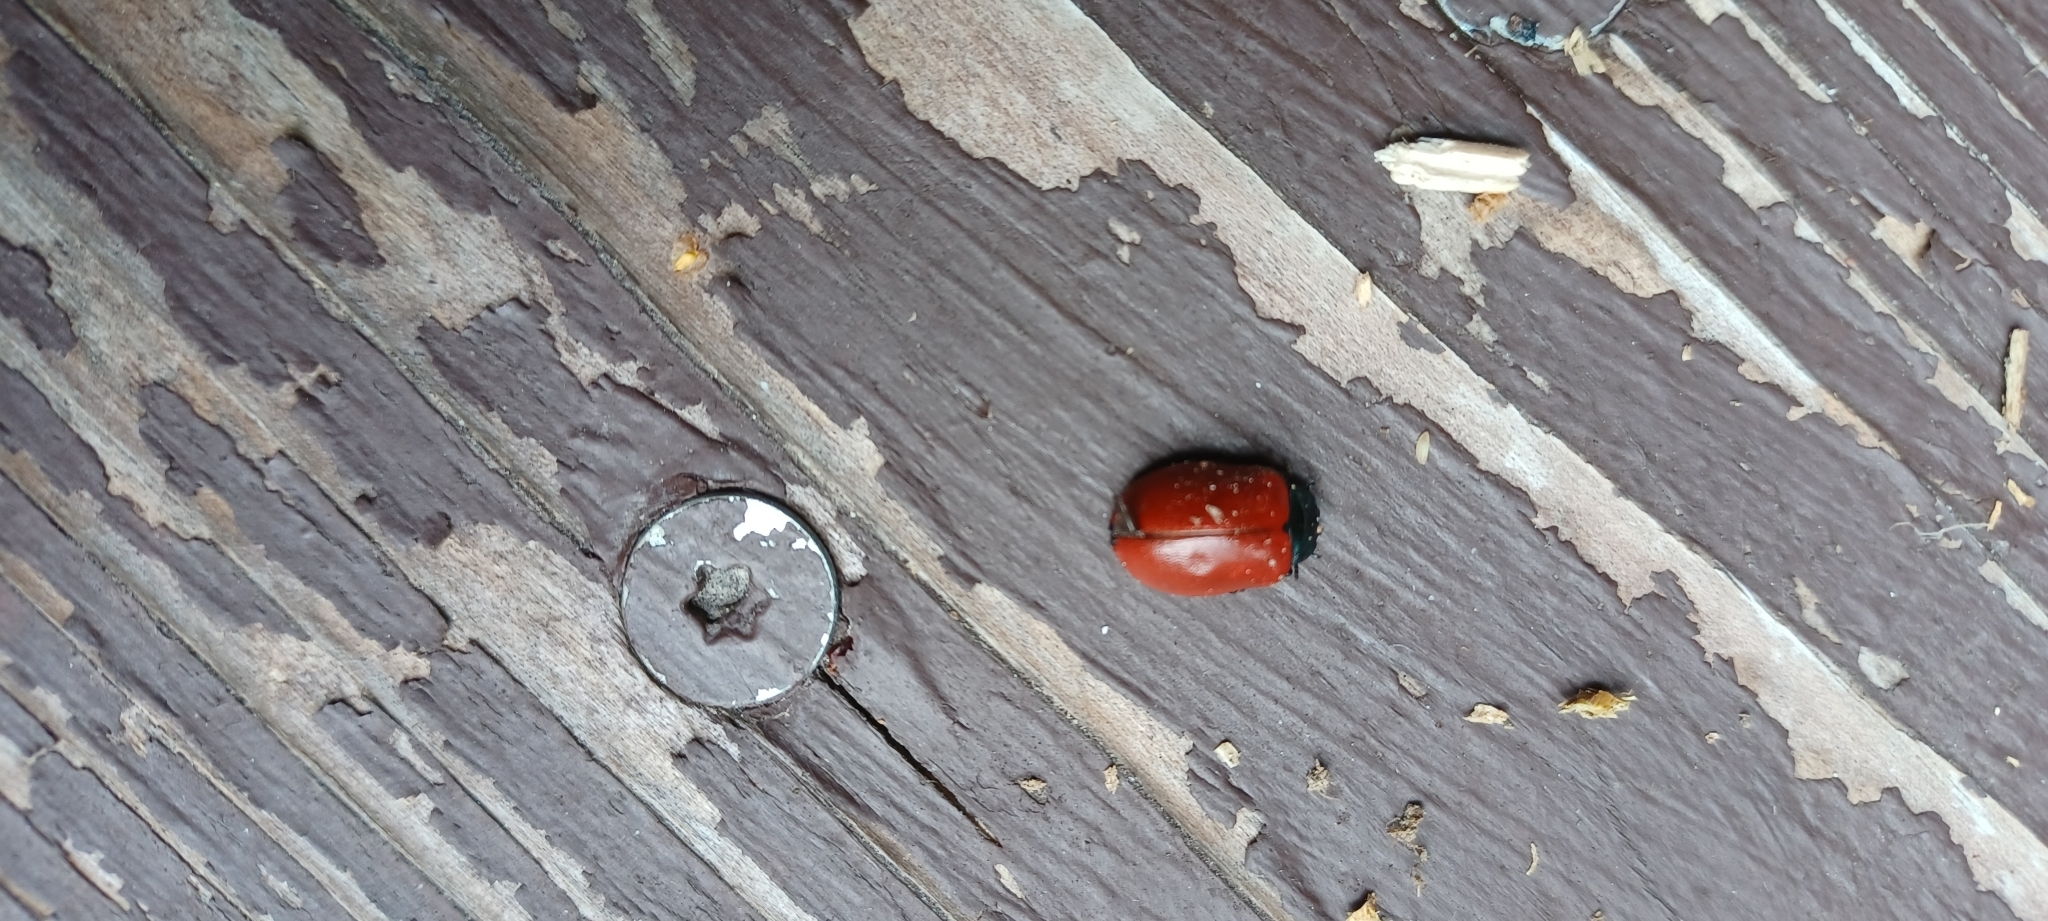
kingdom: Animalia
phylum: Arthropoda
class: Insecta
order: Coleoptera
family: Chrysomelidae
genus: Chrysomela
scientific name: Chrysomela populi
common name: Red poplar leaf beetle
